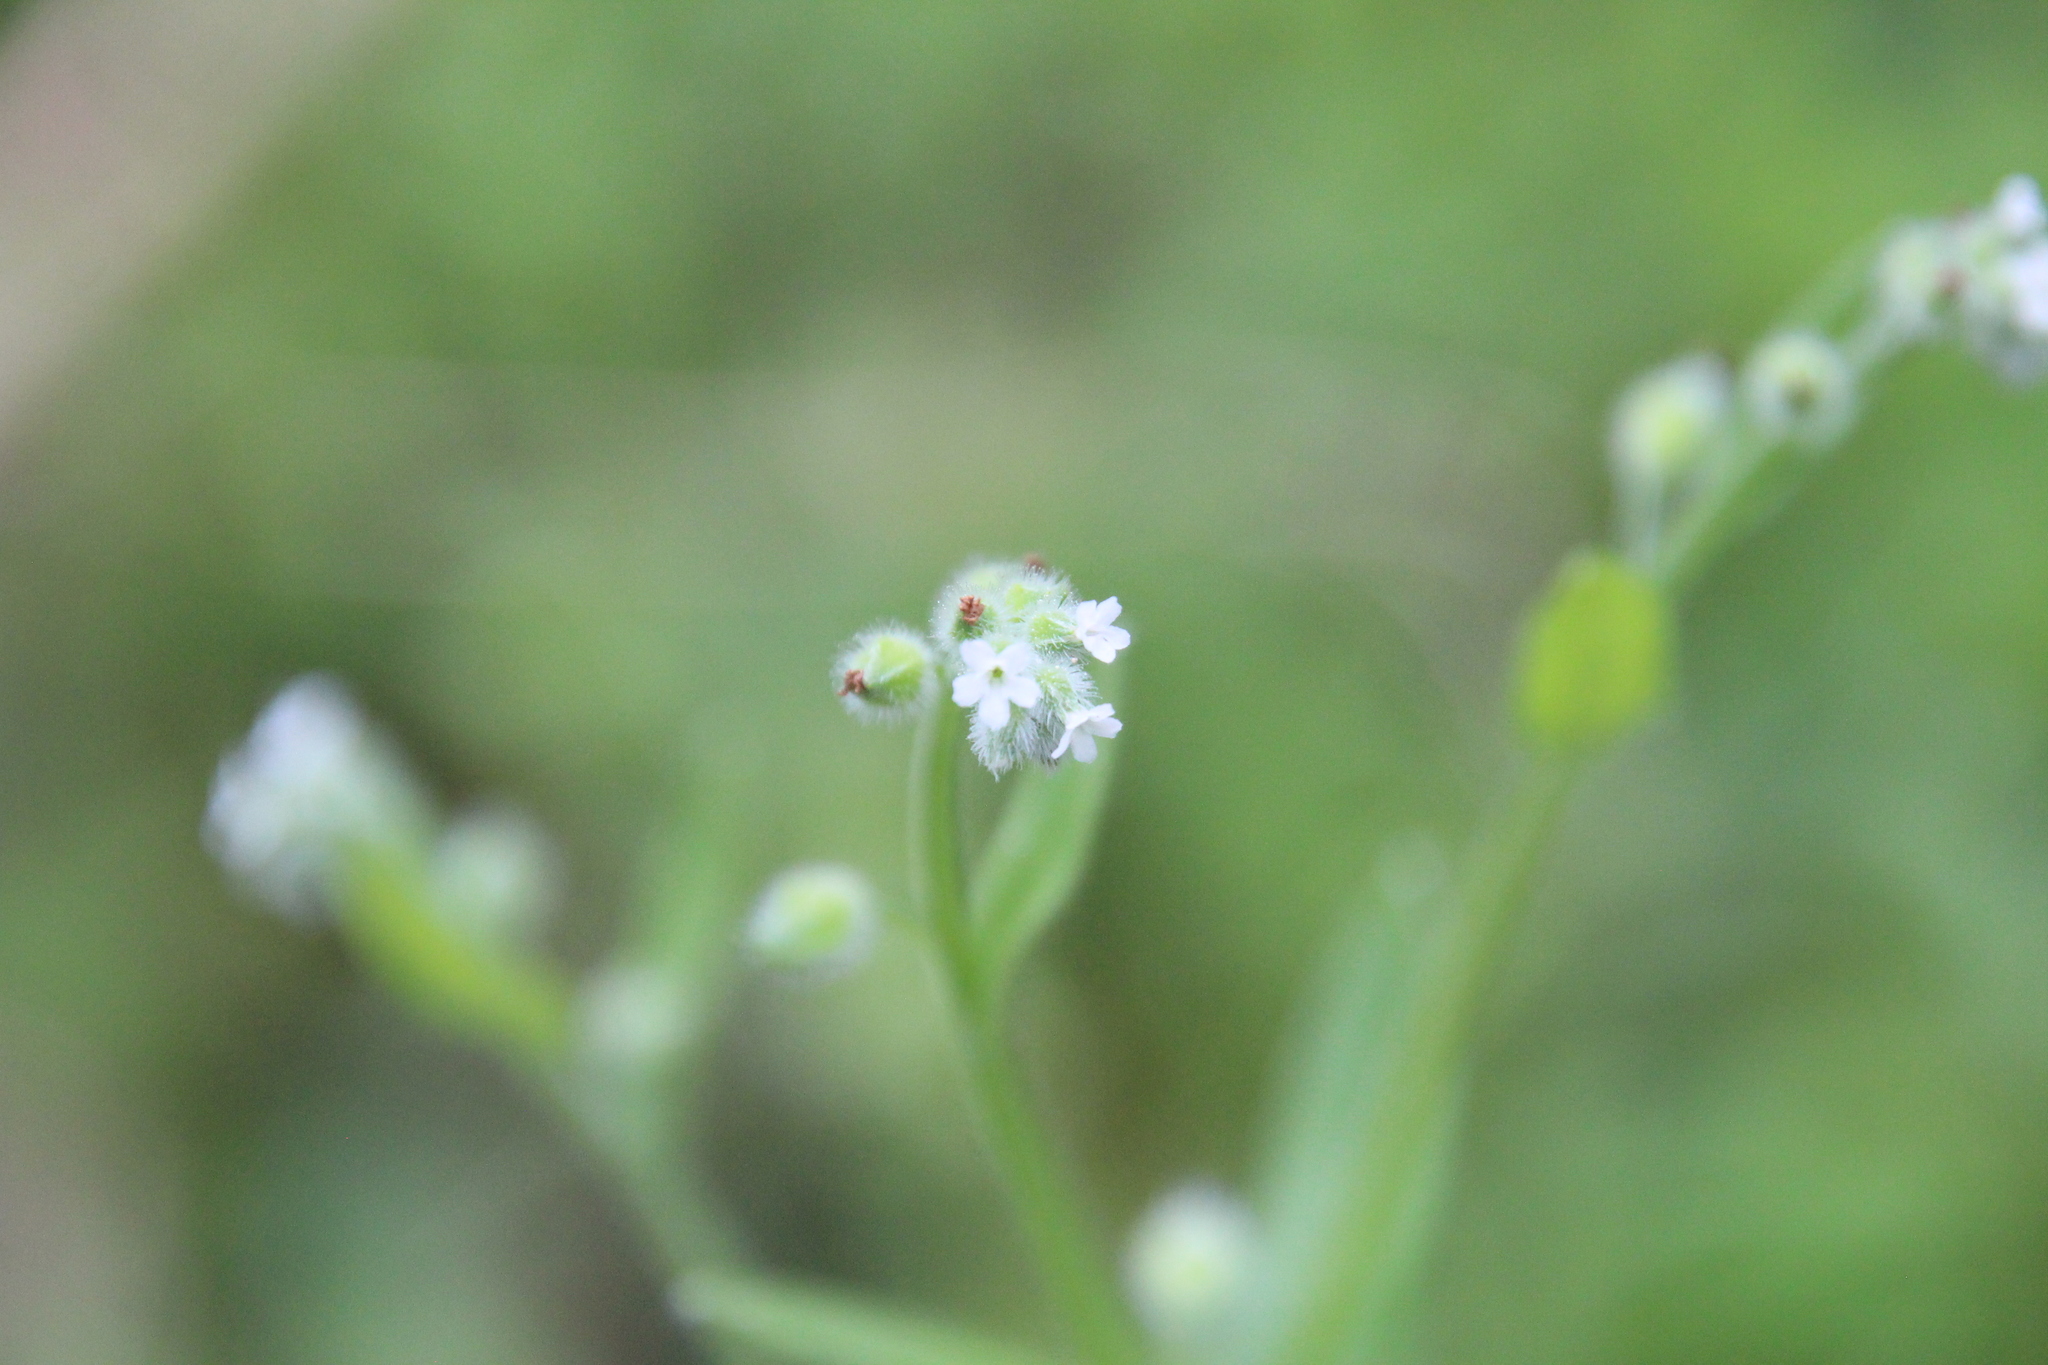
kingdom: Plantae
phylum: Tracheophyta
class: Magnoliopsida
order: Boraginales
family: Boraginaceae
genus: Myosotis
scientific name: Myosotis macrosperma
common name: Large-seed forget-me-not
